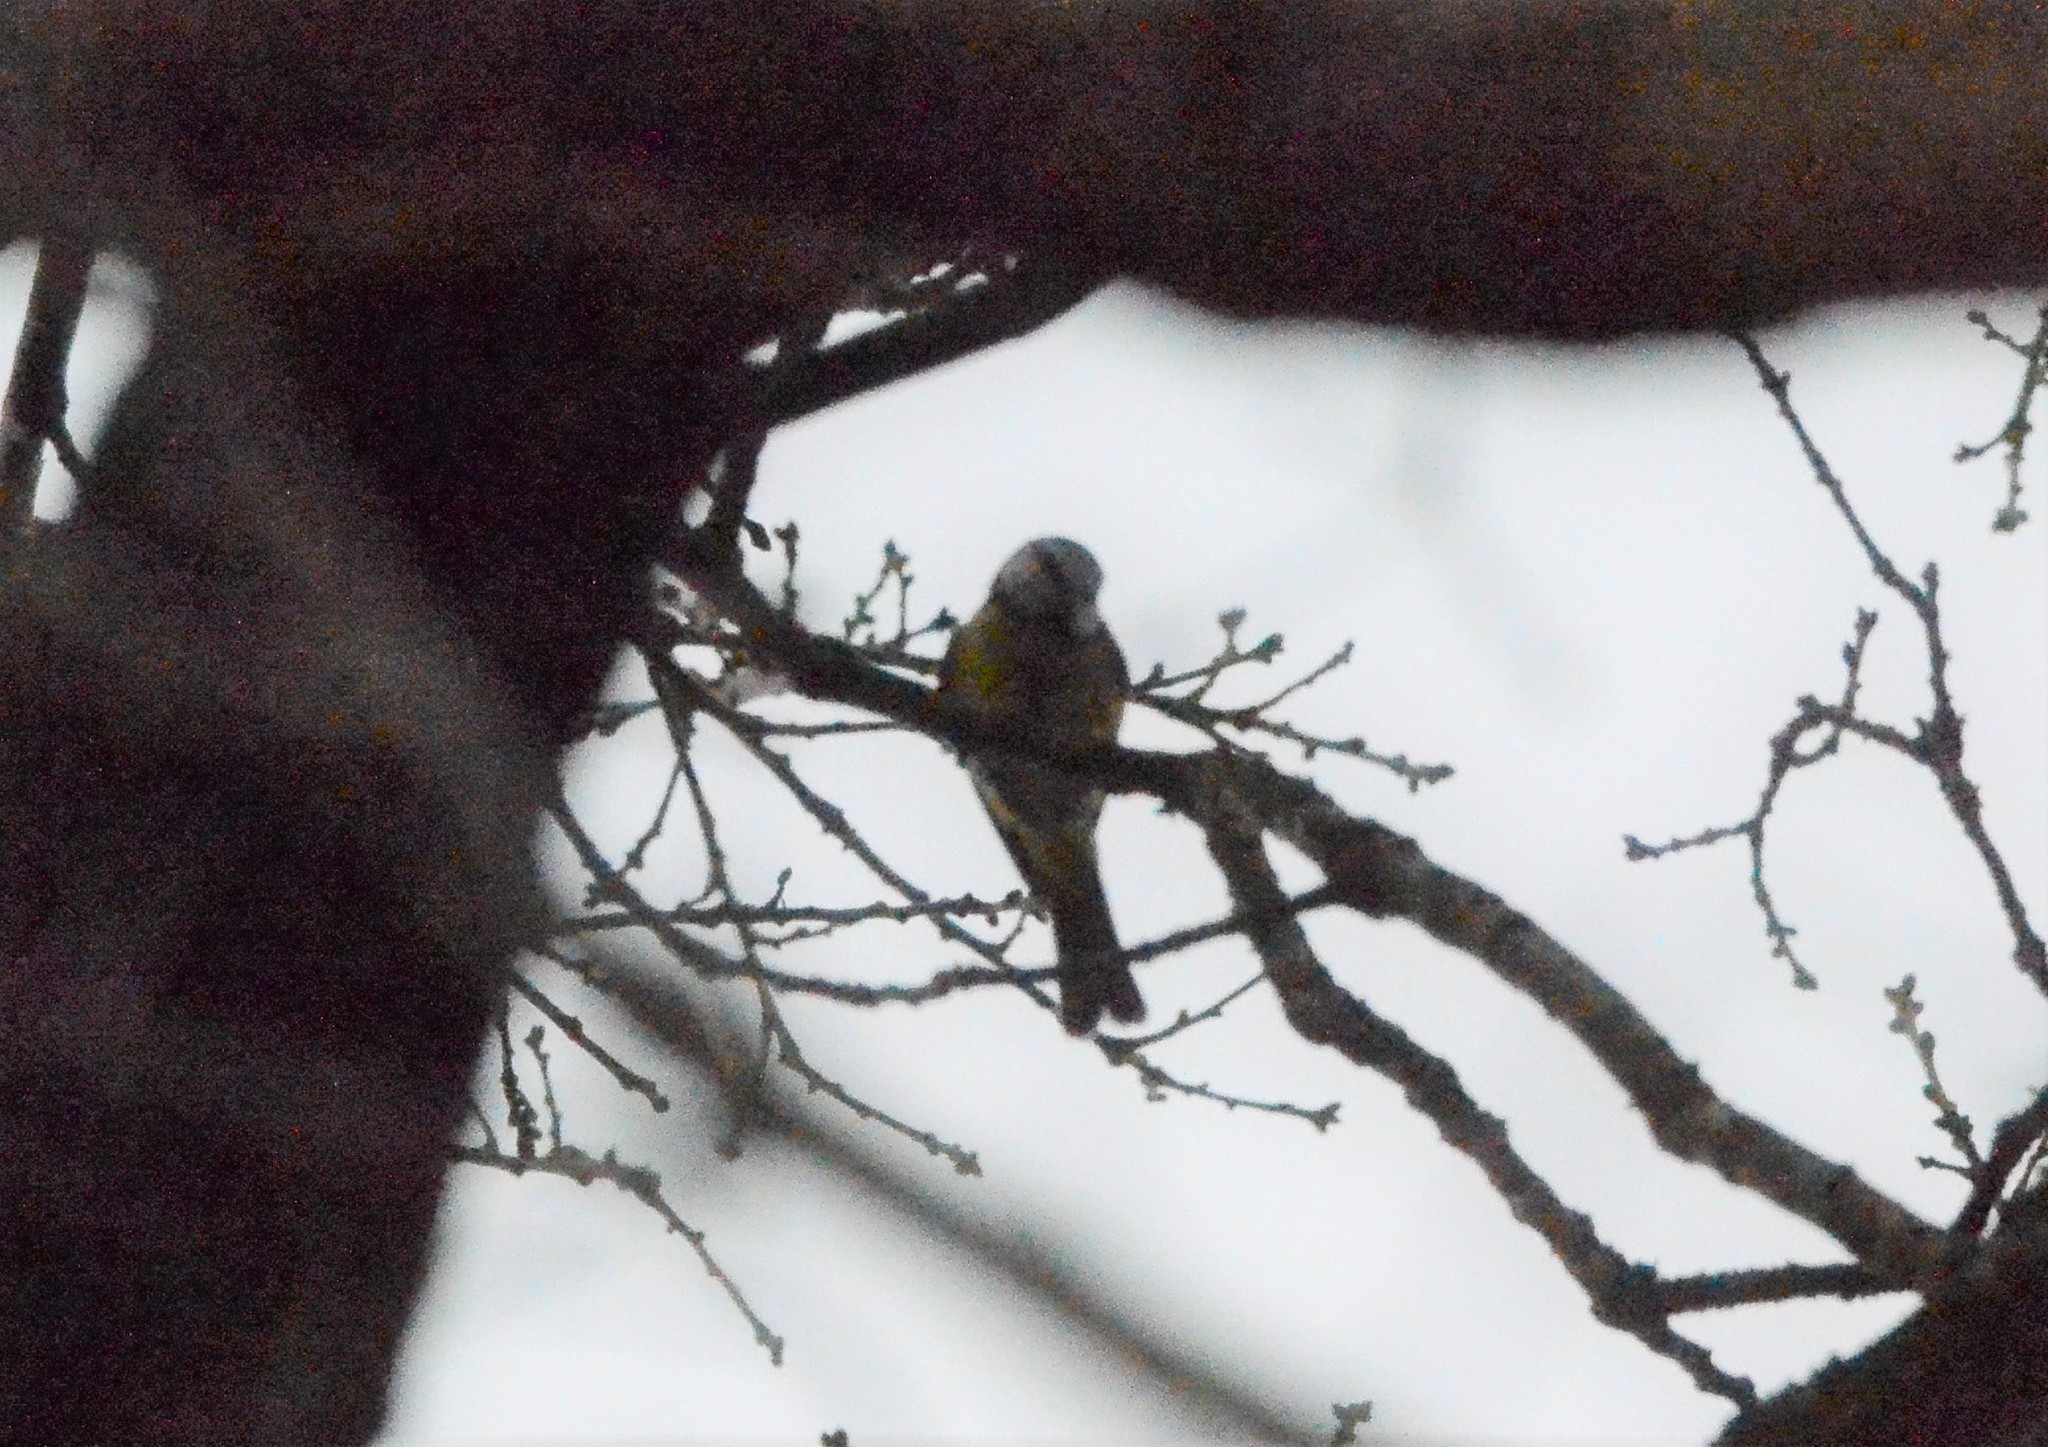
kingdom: Animalia
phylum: Chordata
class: Aves
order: Passeriformes
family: Paridae
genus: Cyanistes
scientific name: Cyanistes caeruleus
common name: Eurasian blue tit
